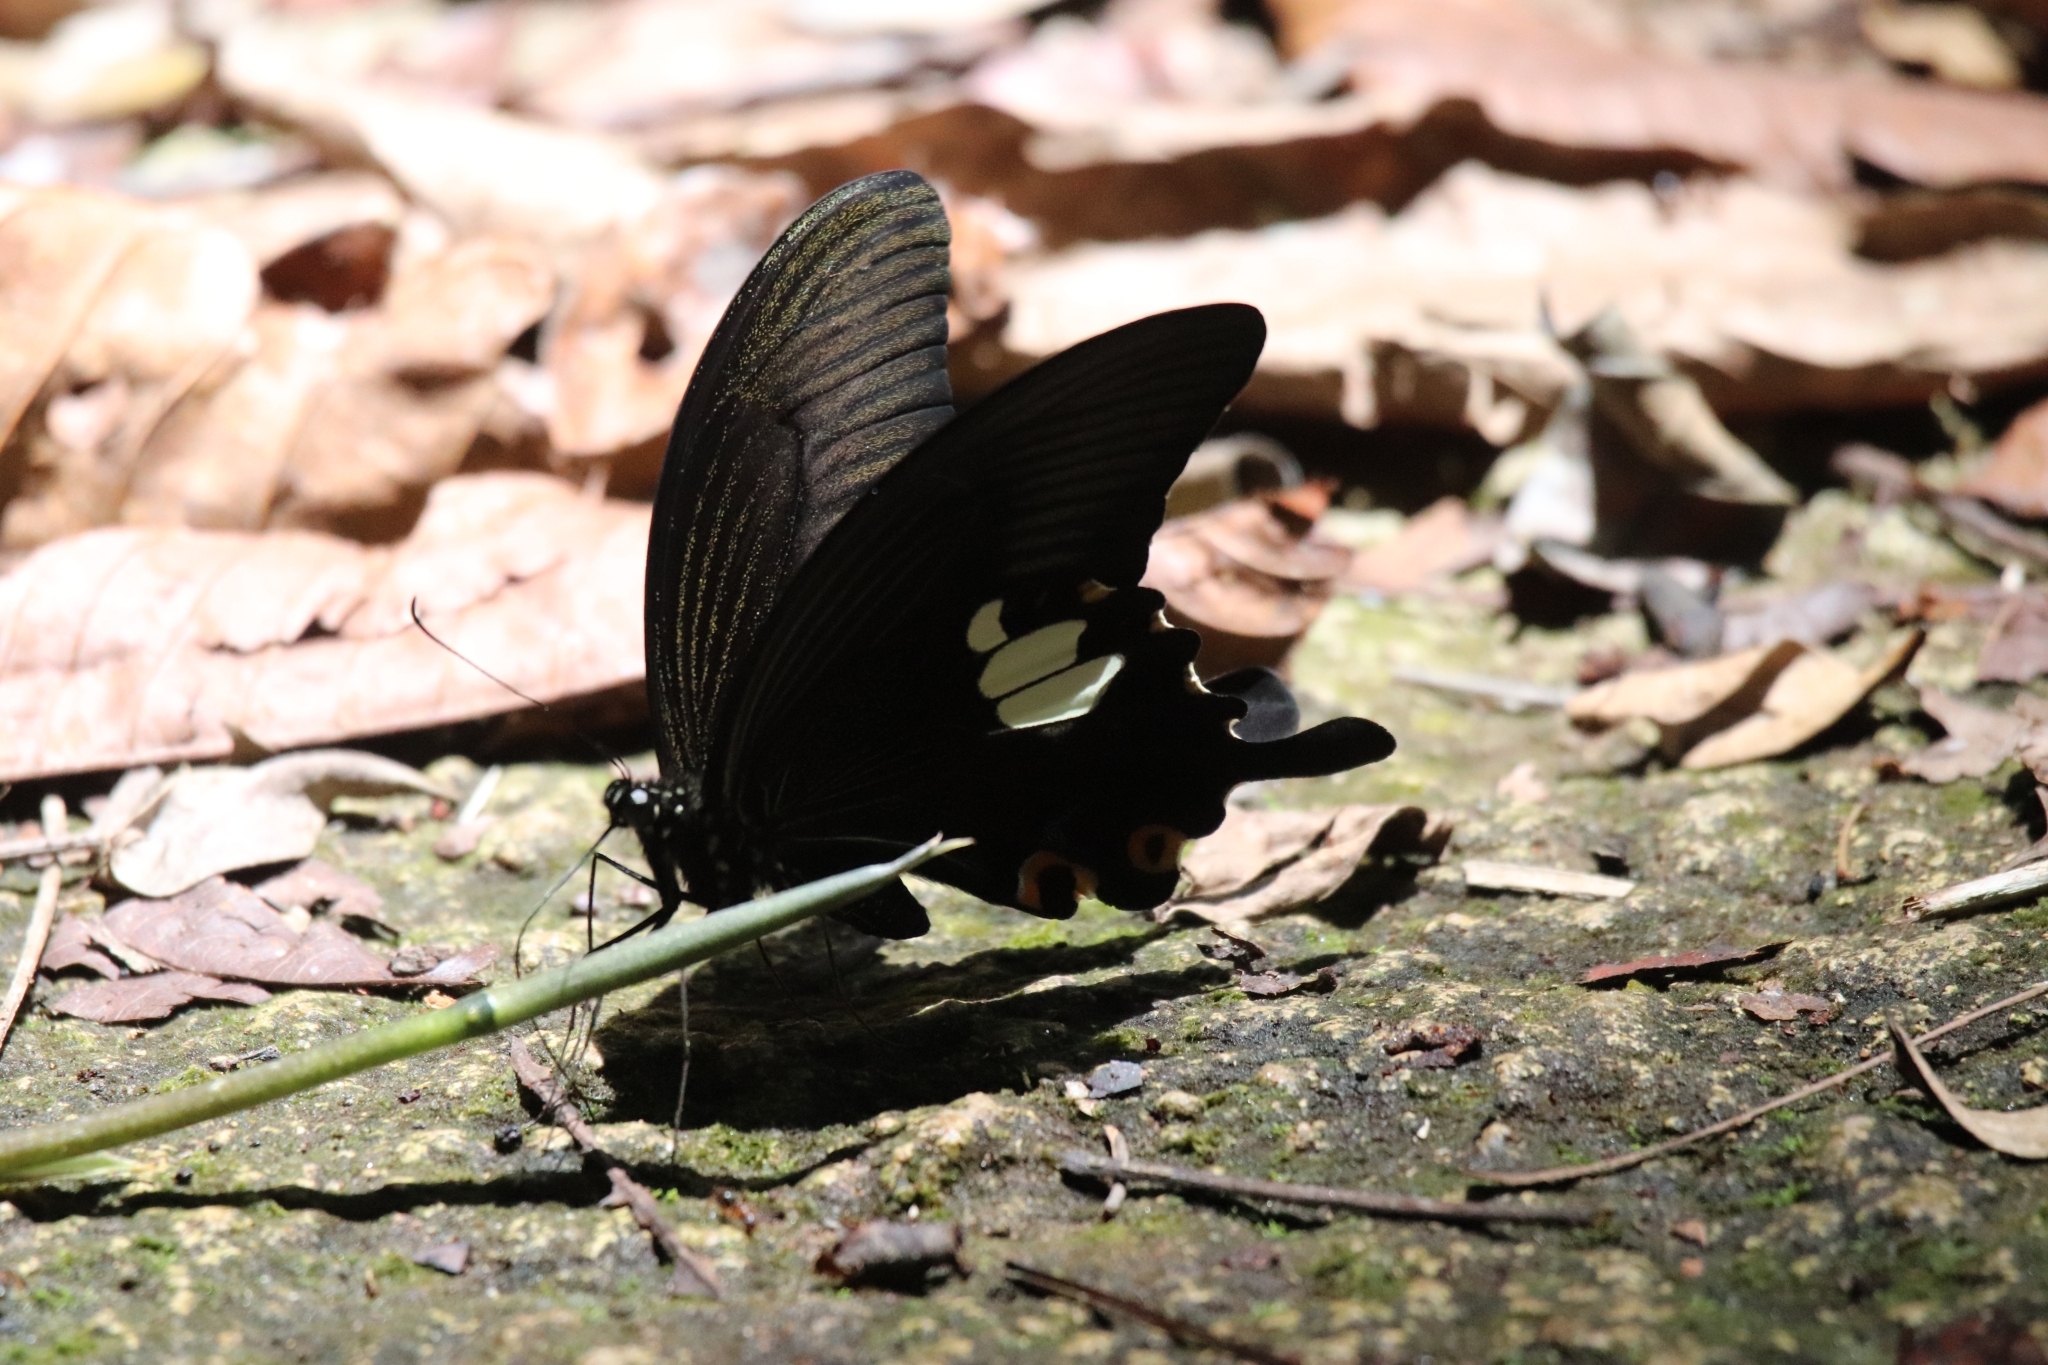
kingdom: Animalia
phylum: Arthropoda
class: Insecta
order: Lepidoptera
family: Papilionidae
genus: Papilio
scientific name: Papilio sataspes
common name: Sulawesi red helen
